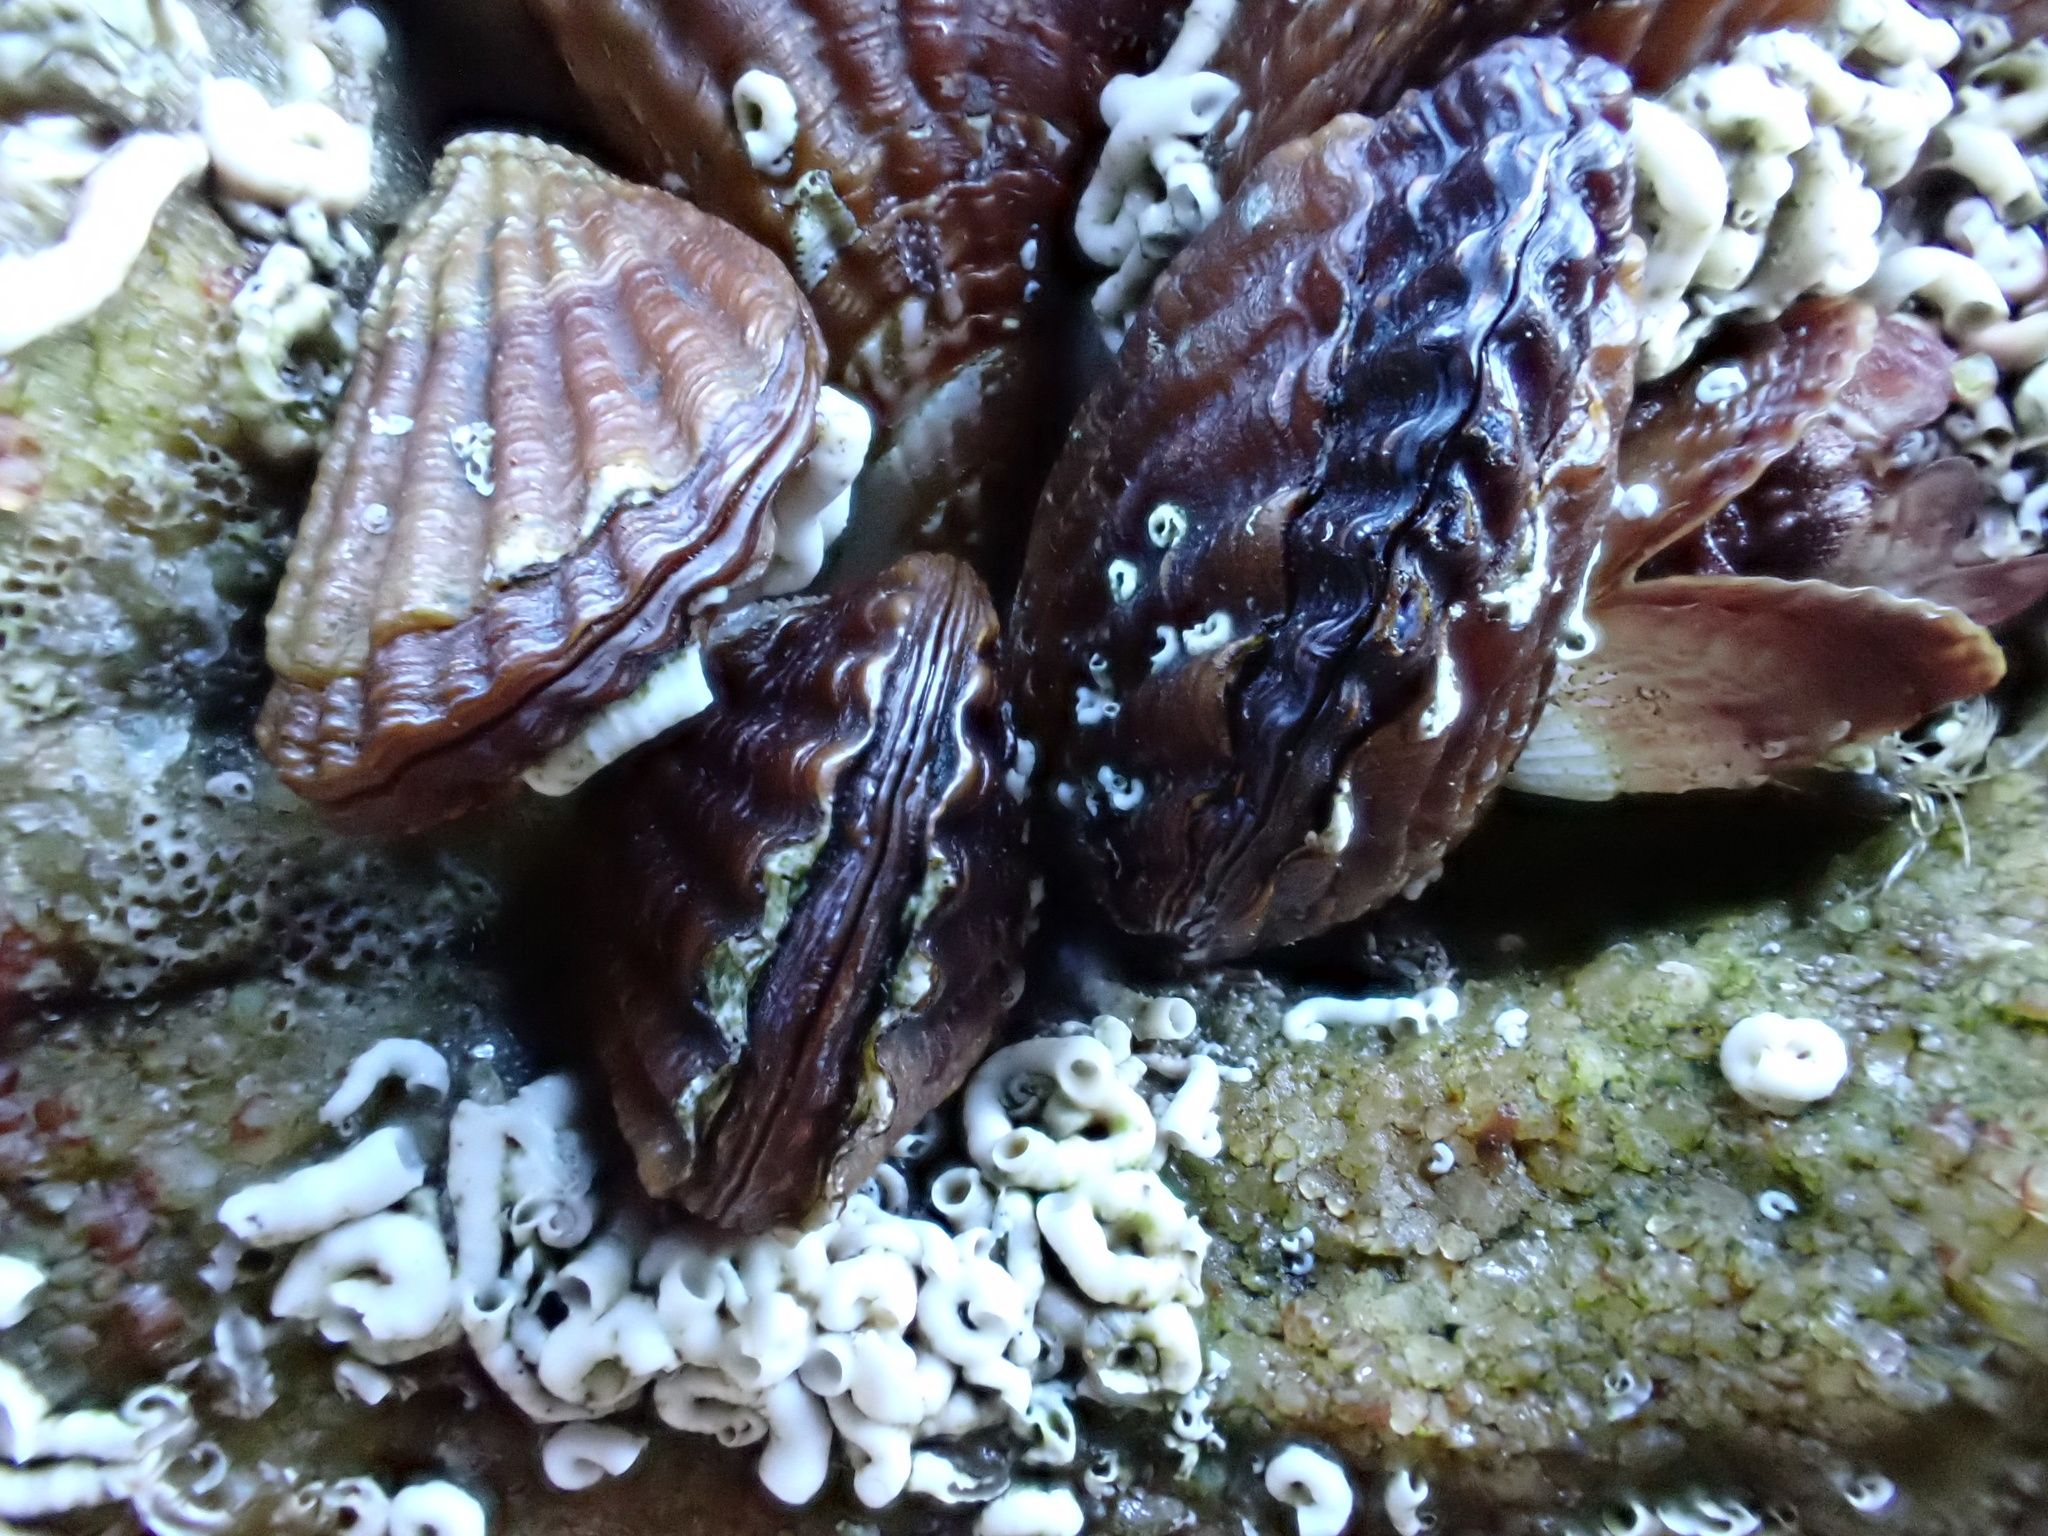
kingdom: Animalia
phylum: Mollusca
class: Bivalvia
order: Mytilida
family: Mytilidae
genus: Aulacomya
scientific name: Aulacomya atra
